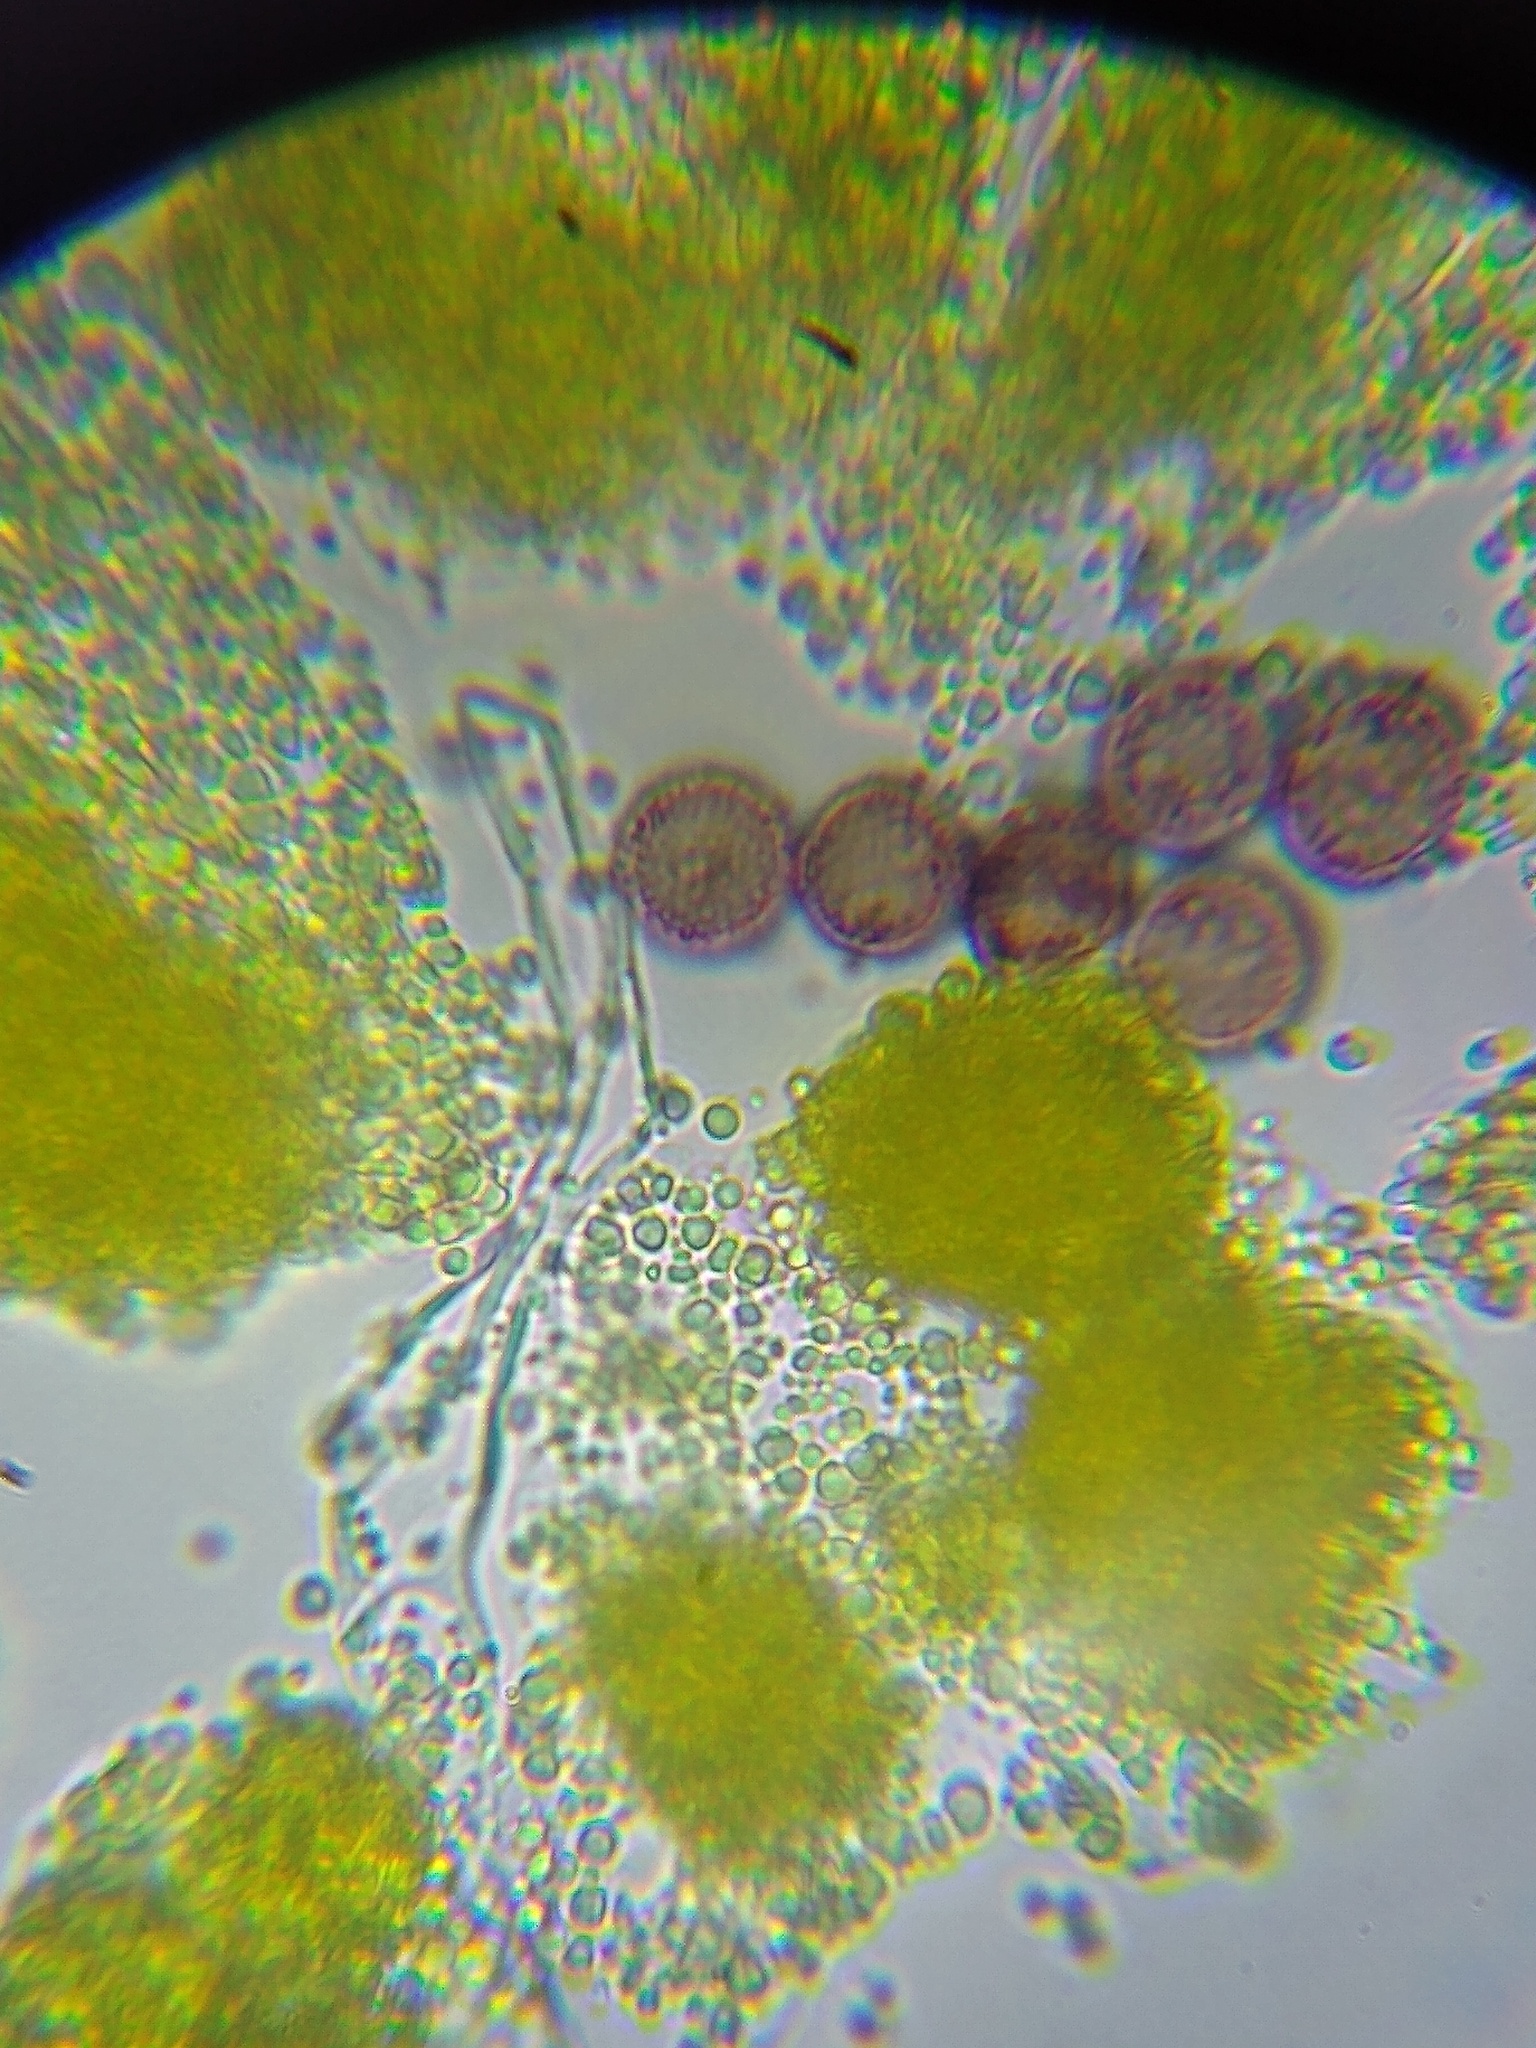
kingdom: Protozoa
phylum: Mycetozoa
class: Myxomycetes
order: Physarales
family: Physaraceae
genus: Physarum
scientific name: Physarum viride
